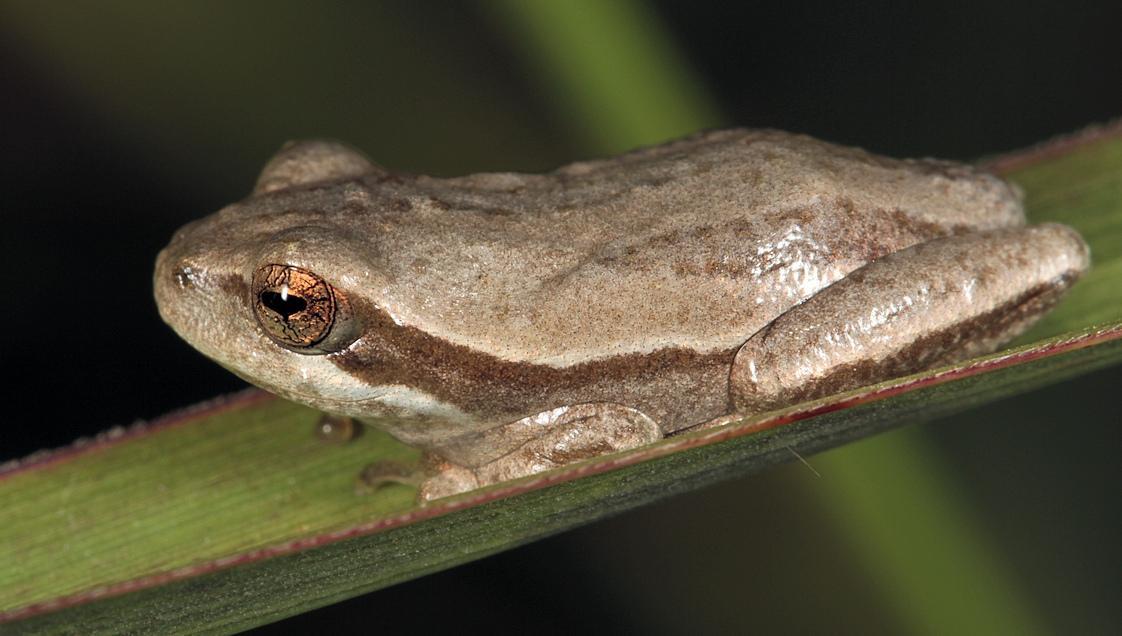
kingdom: Animalia
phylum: Chordata
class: Amphibia
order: Anura
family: Hyperoliidae
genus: Hyperolius
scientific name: Hyperolius marmoratus
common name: Painted reed frog
